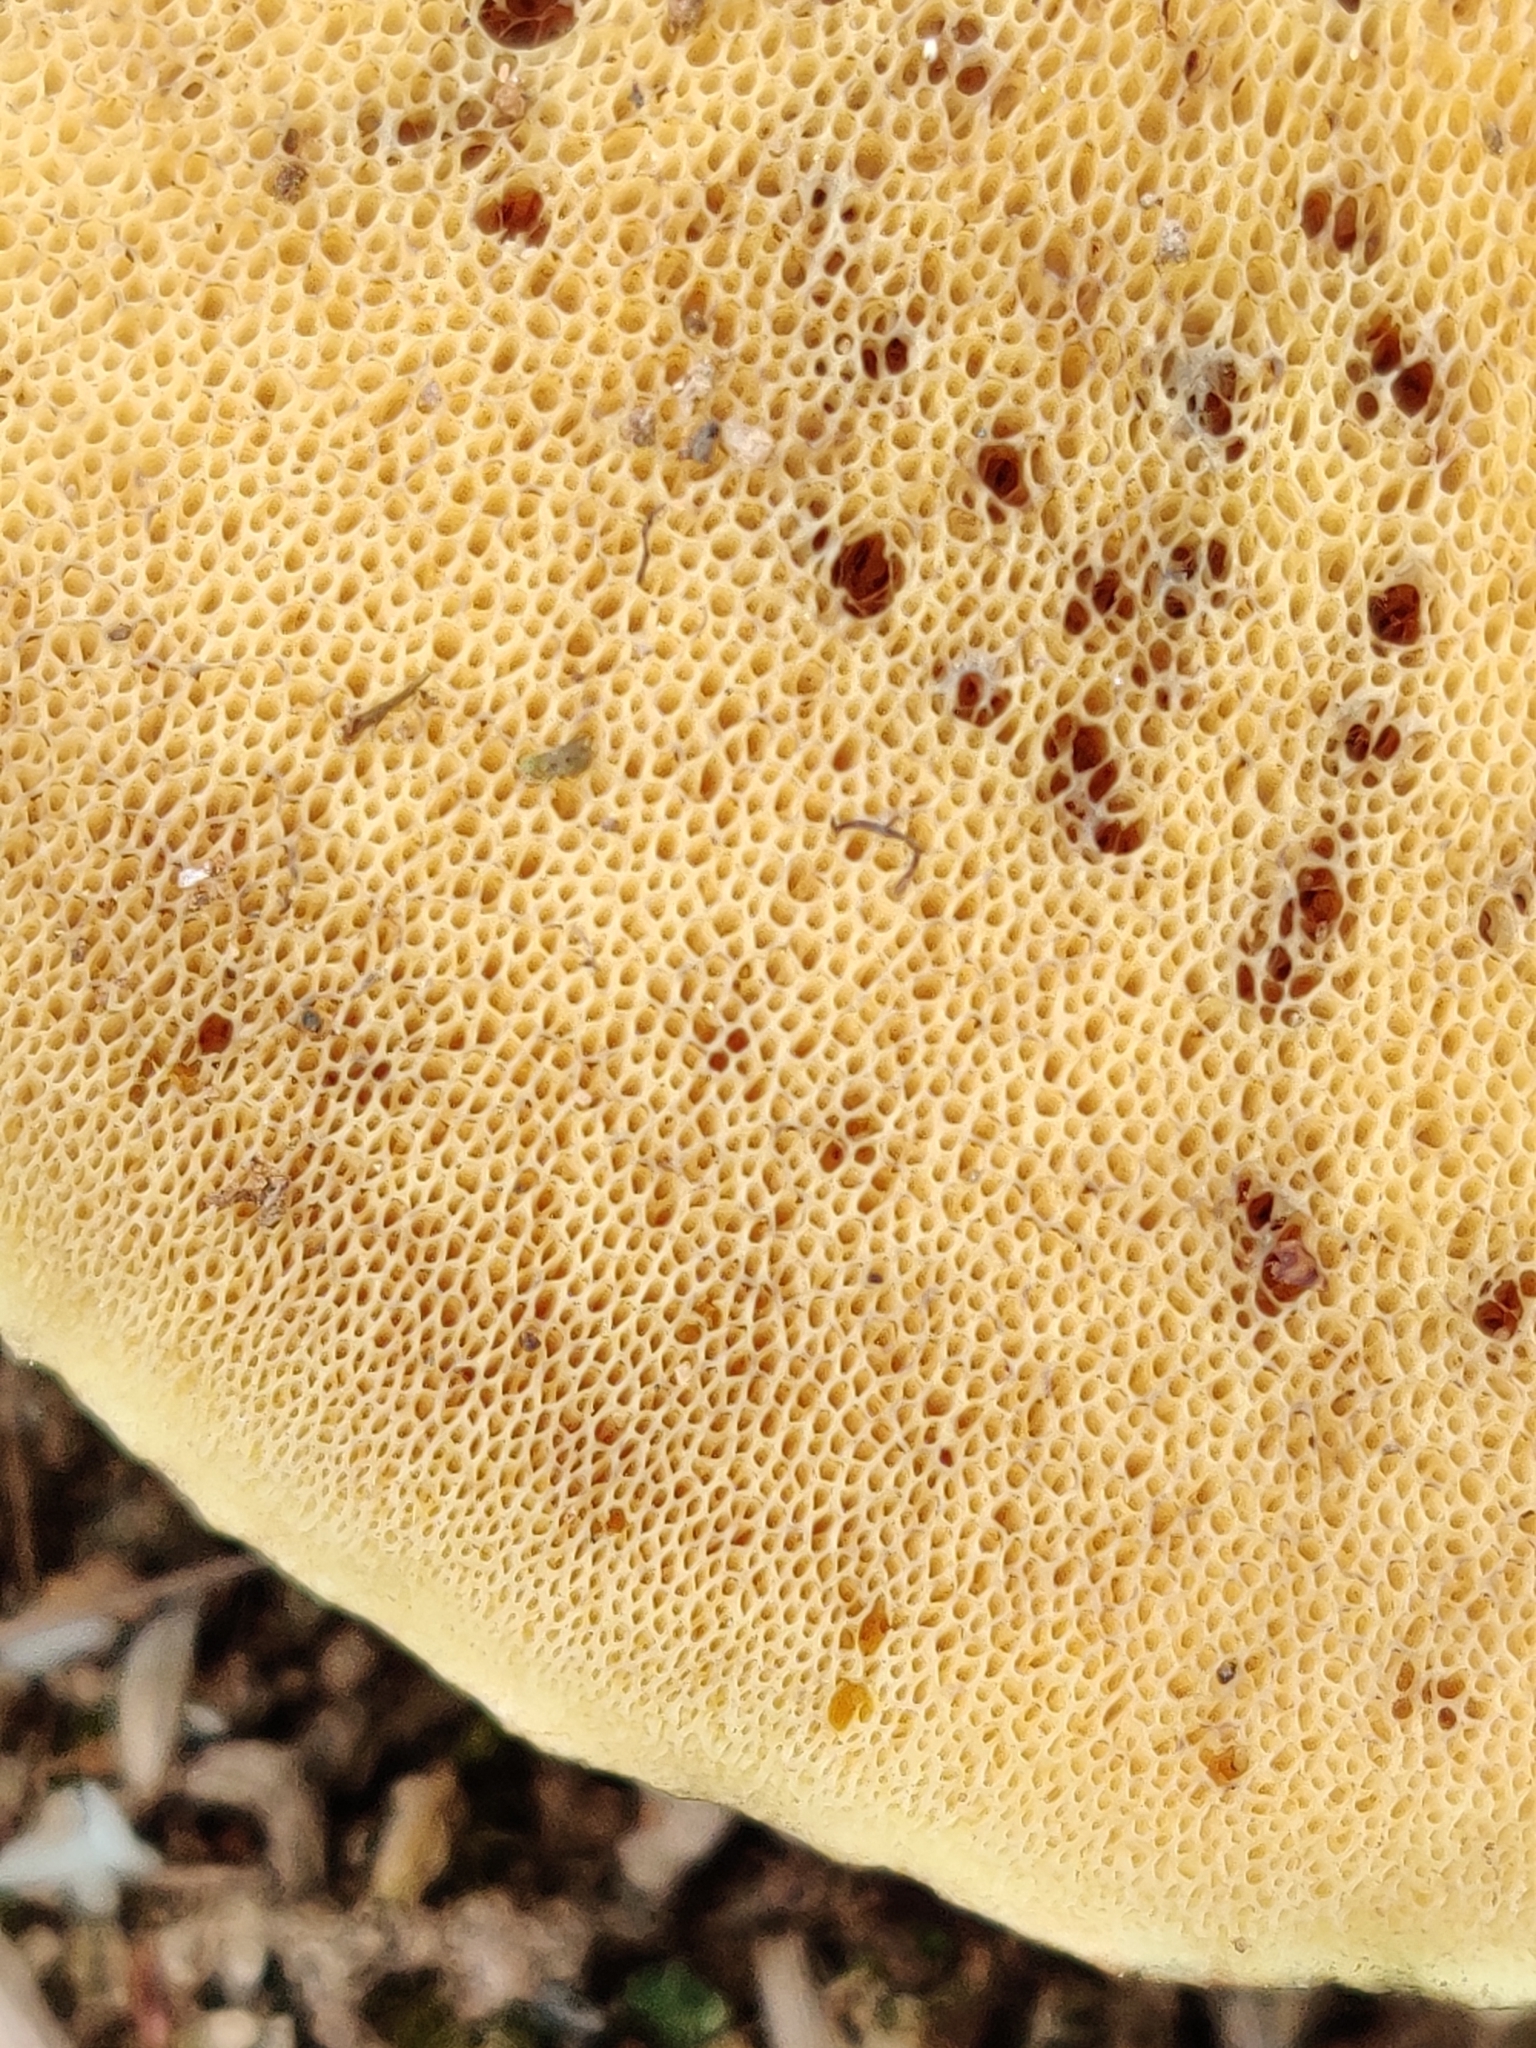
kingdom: Fungi
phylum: Basidiomycota
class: Agaricomycetes
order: Boletales
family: Suillaceae
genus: Suillus
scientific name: Suillus luteus
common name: Slippery jack
